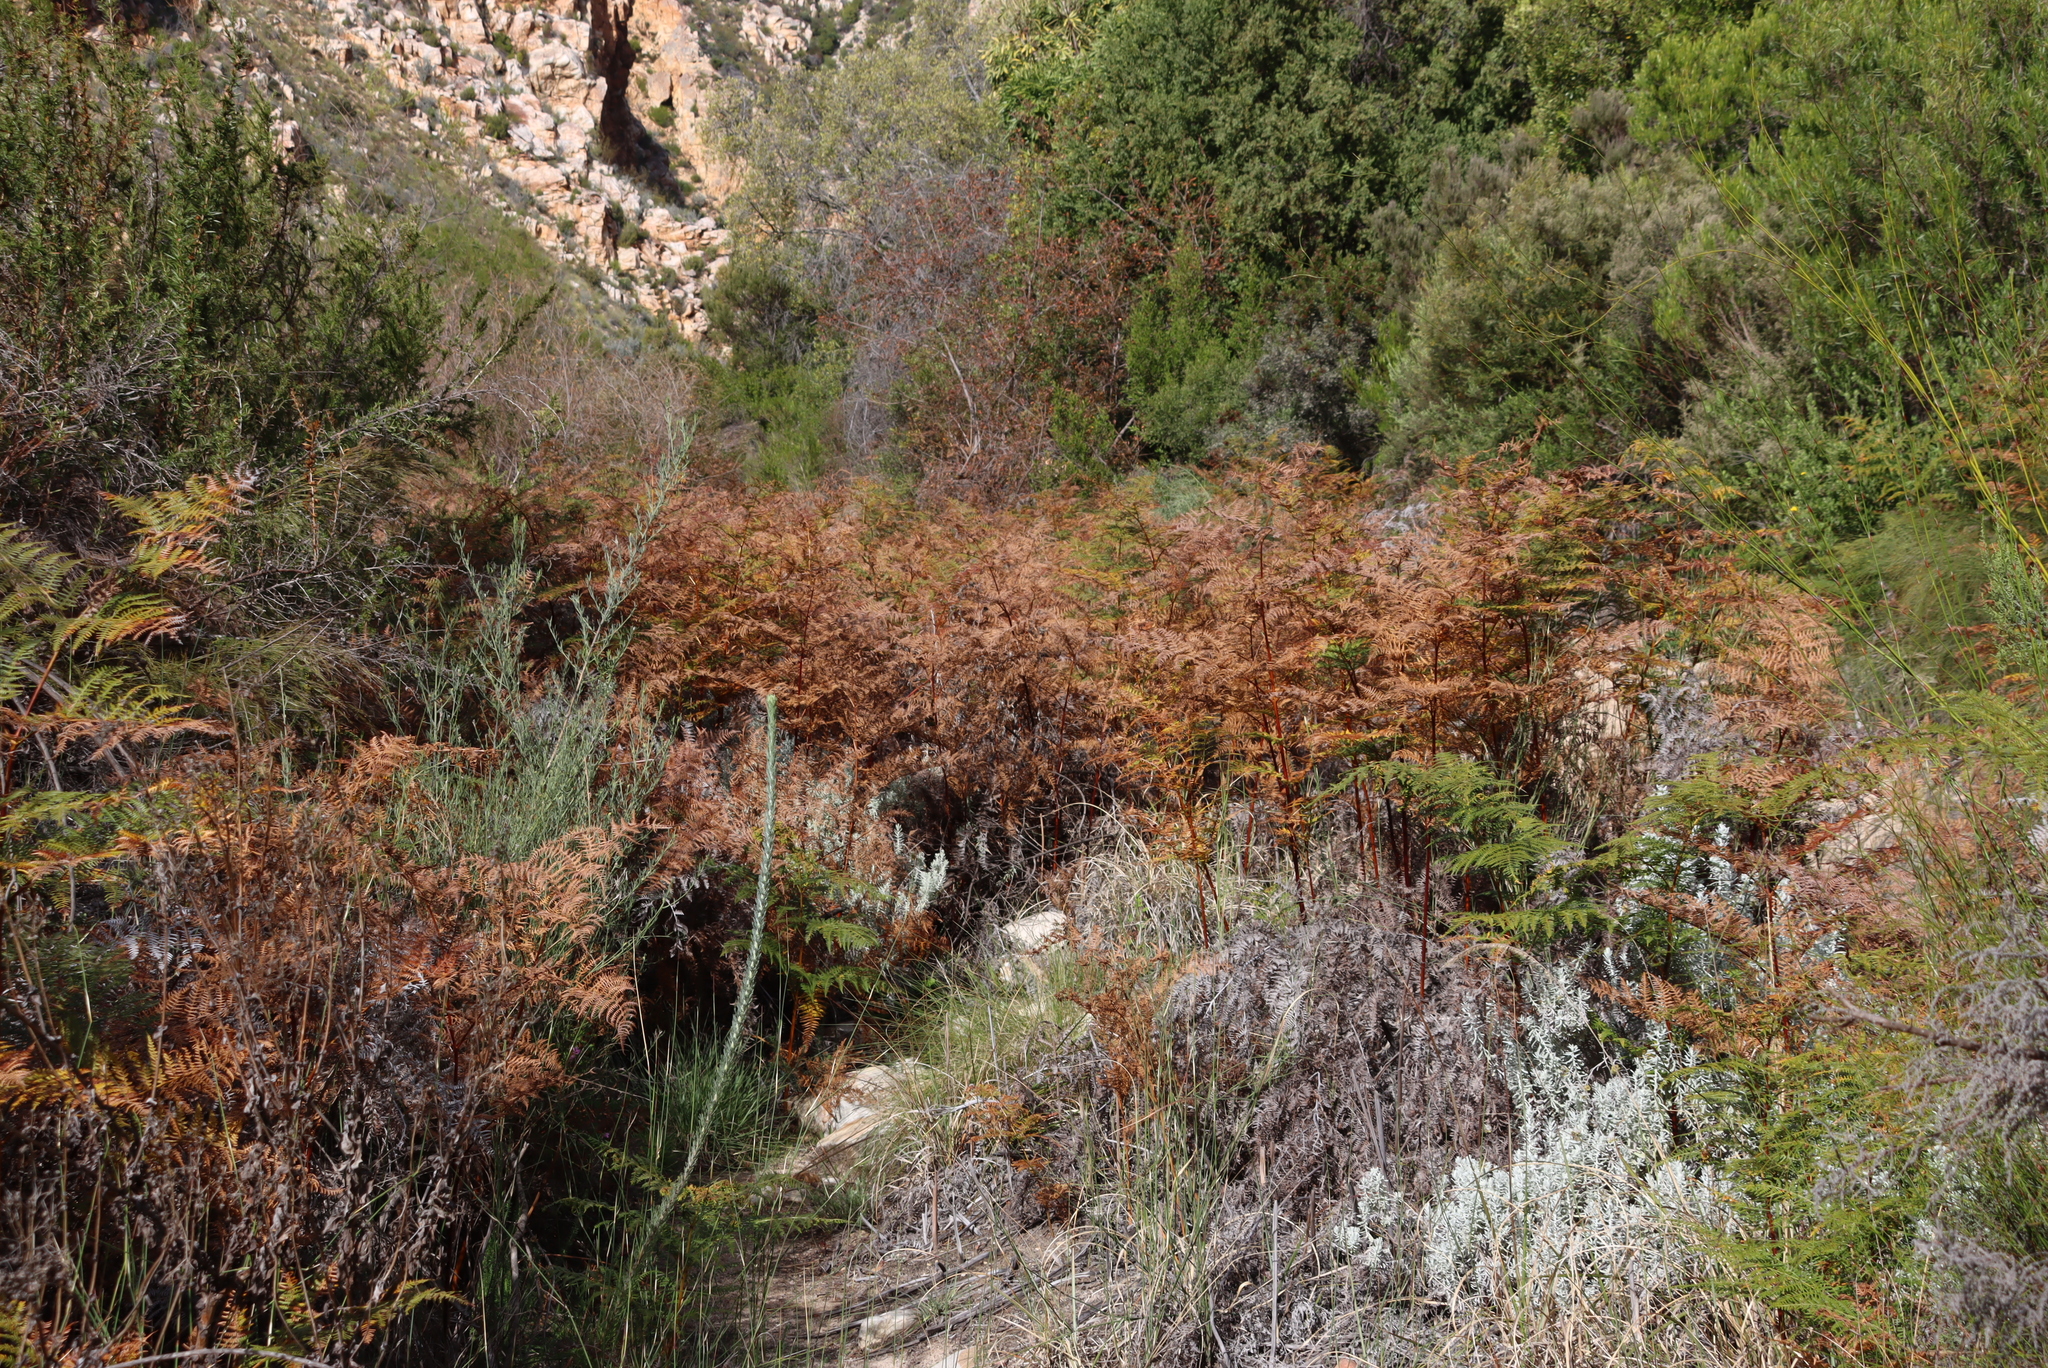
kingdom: Plantae
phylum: Tracheophyta
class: Polypodiopsida
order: Polypodiales
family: Dennstaedtiaceae
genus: Pteridium
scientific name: Pteridium aquilinum
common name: Bracken
